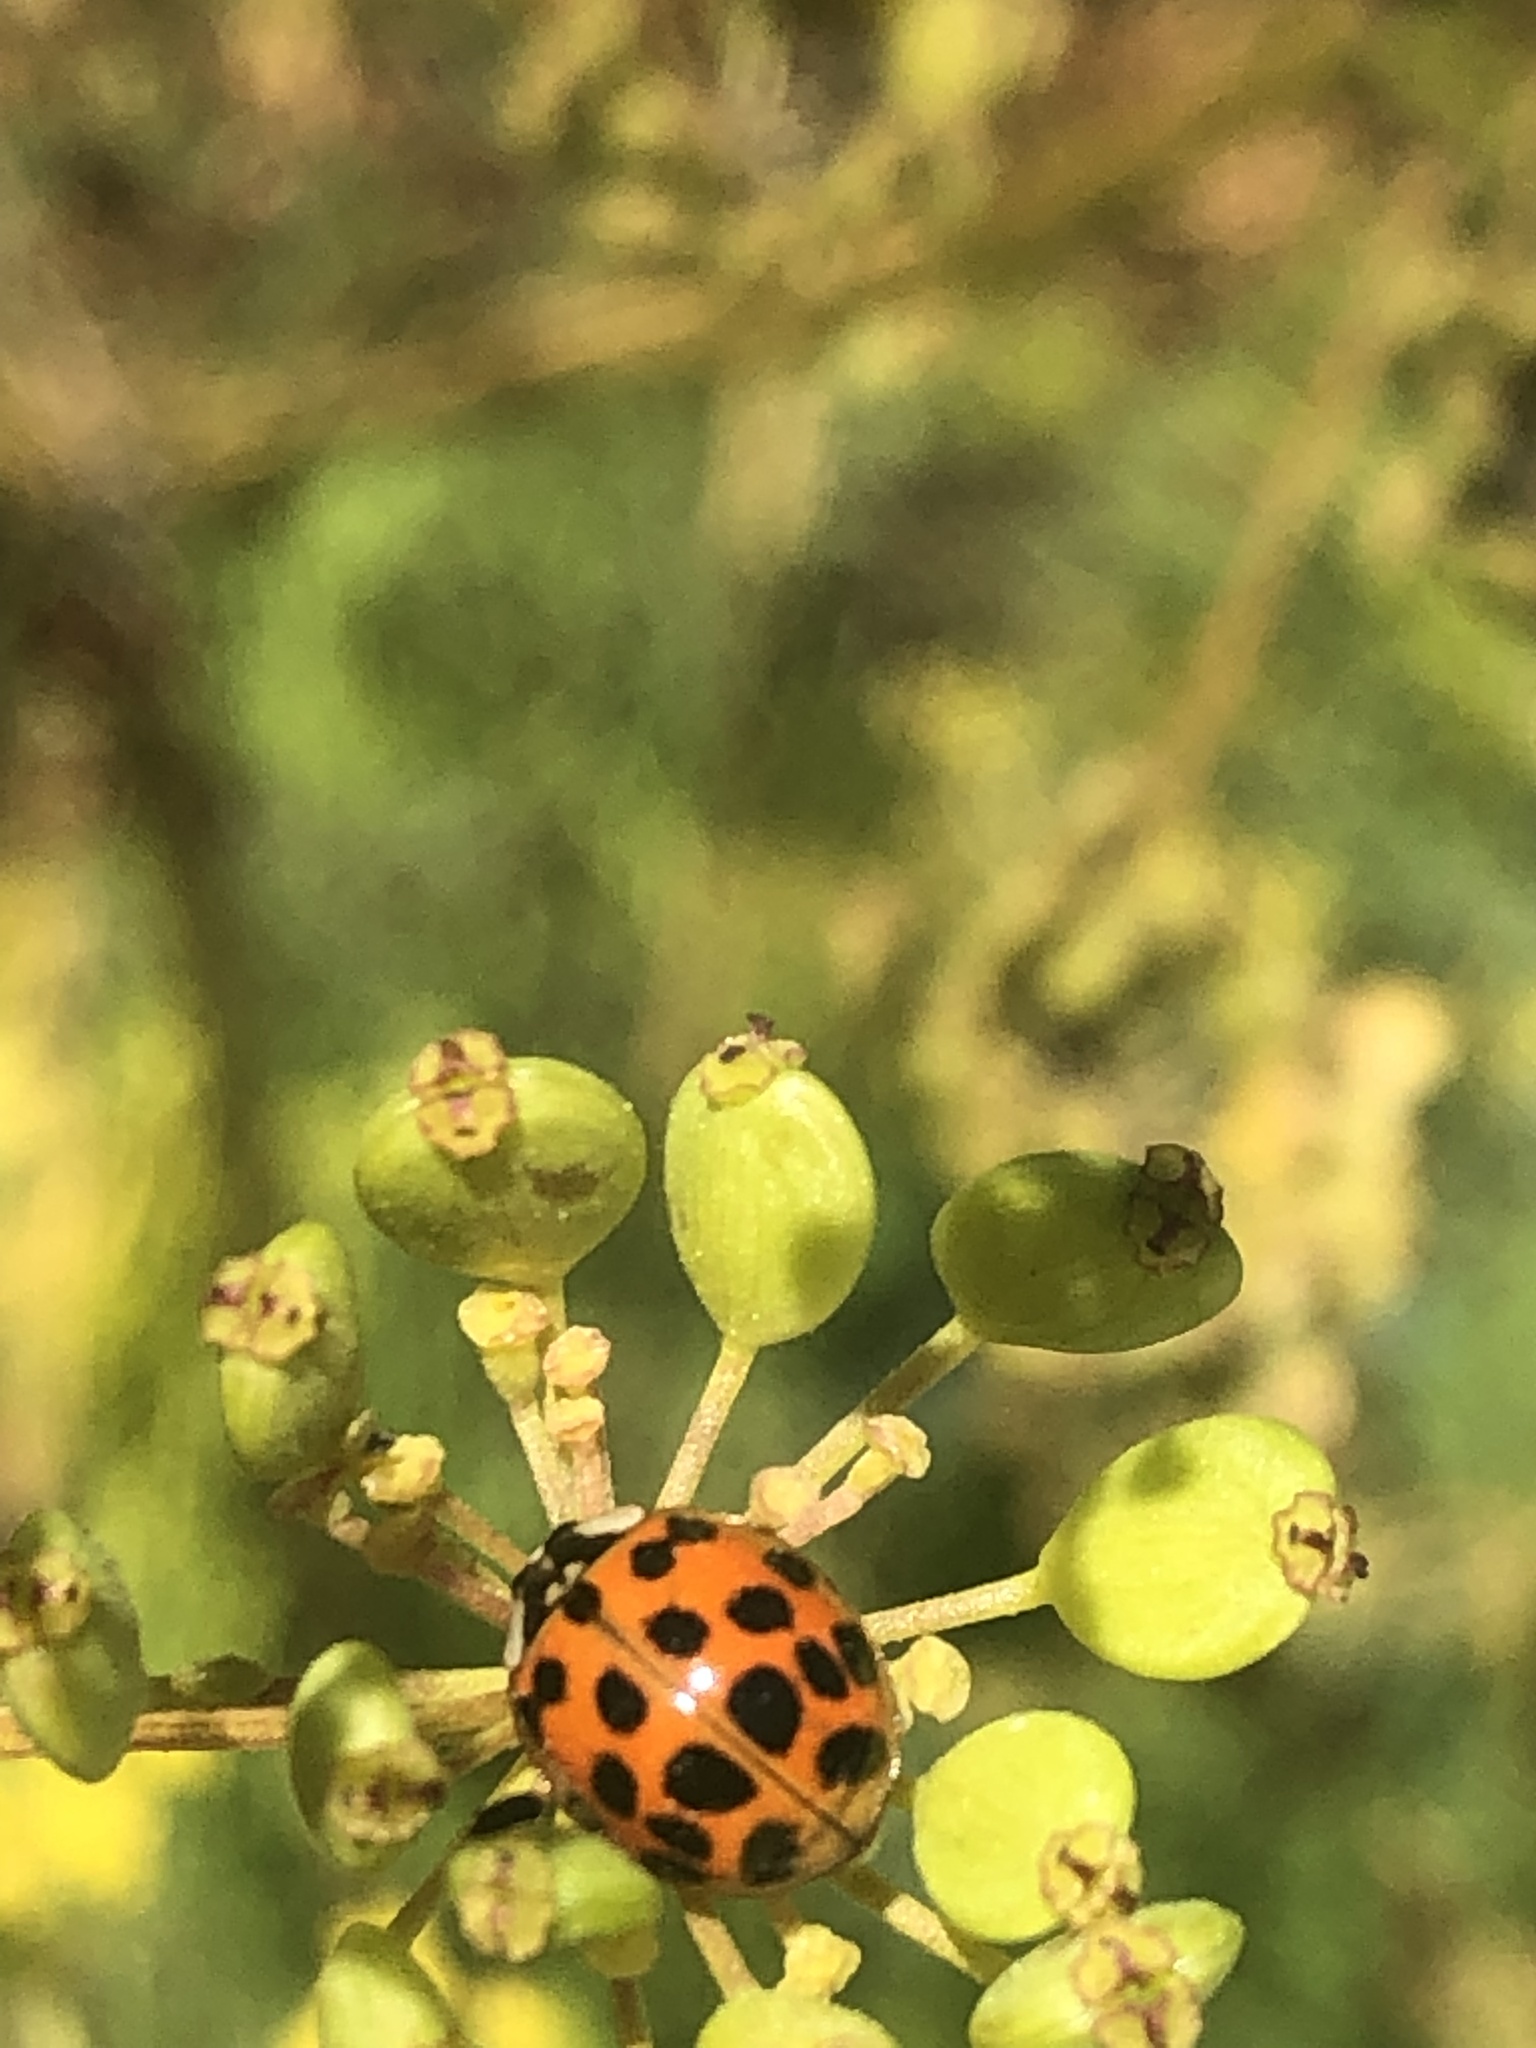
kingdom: Animalia
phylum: Arthropoda
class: Insecta
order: Coleoptera
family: Coccinellidae
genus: Harmonia
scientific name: Harmonia axyridis
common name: Harlequin ladybird
